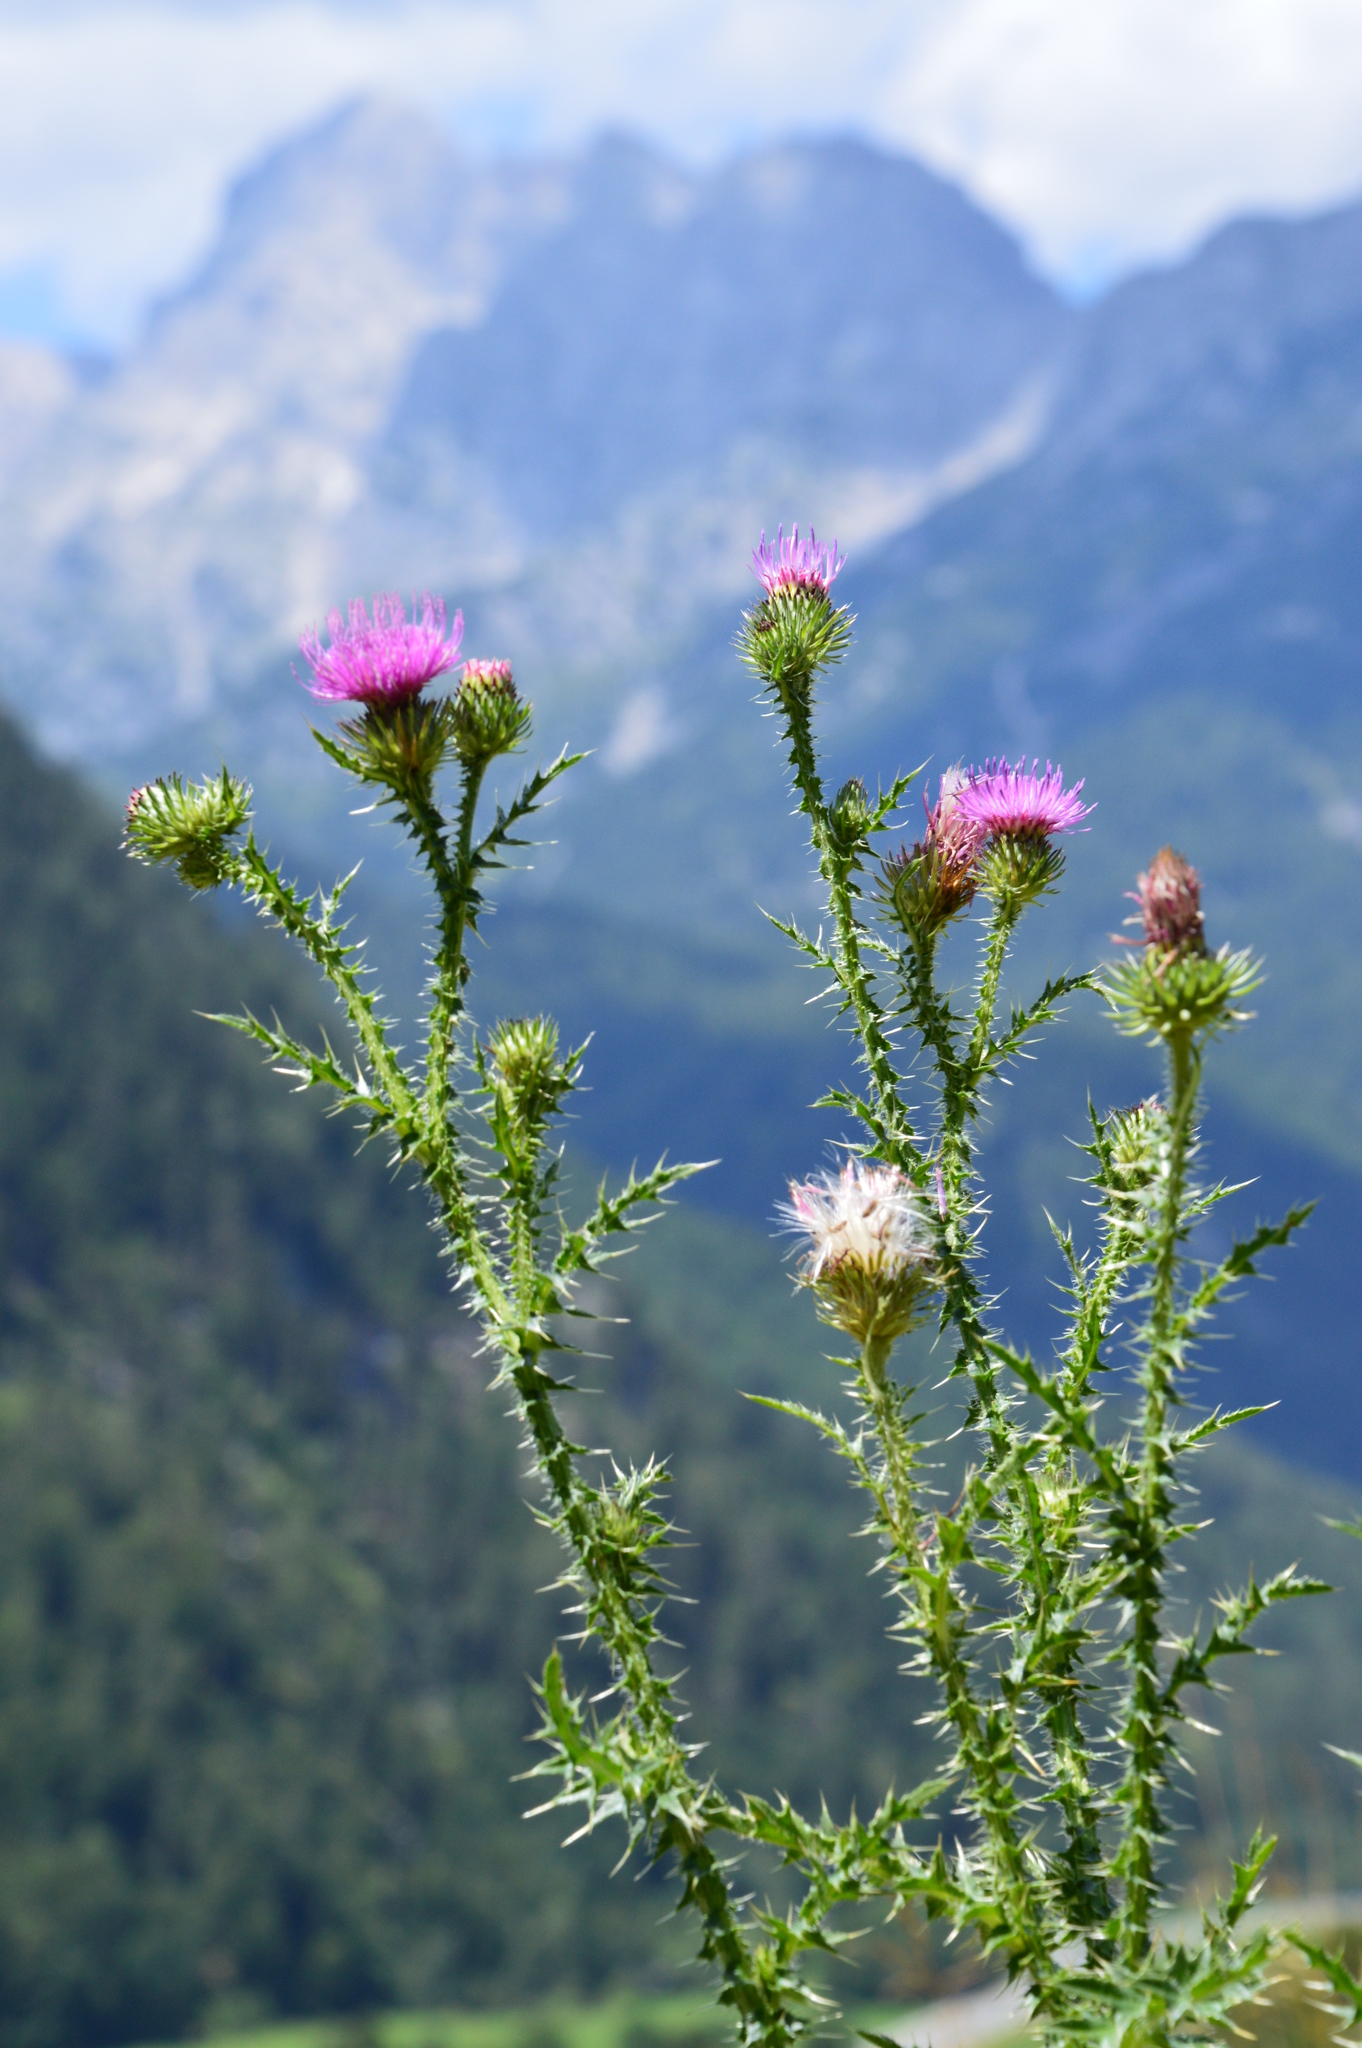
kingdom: Plantae
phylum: Tracheophyta
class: Magnoliopsida
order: Asterales
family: Asteraceae
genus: Carduus
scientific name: Carduus acanthoides
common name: Plumeless thistle
